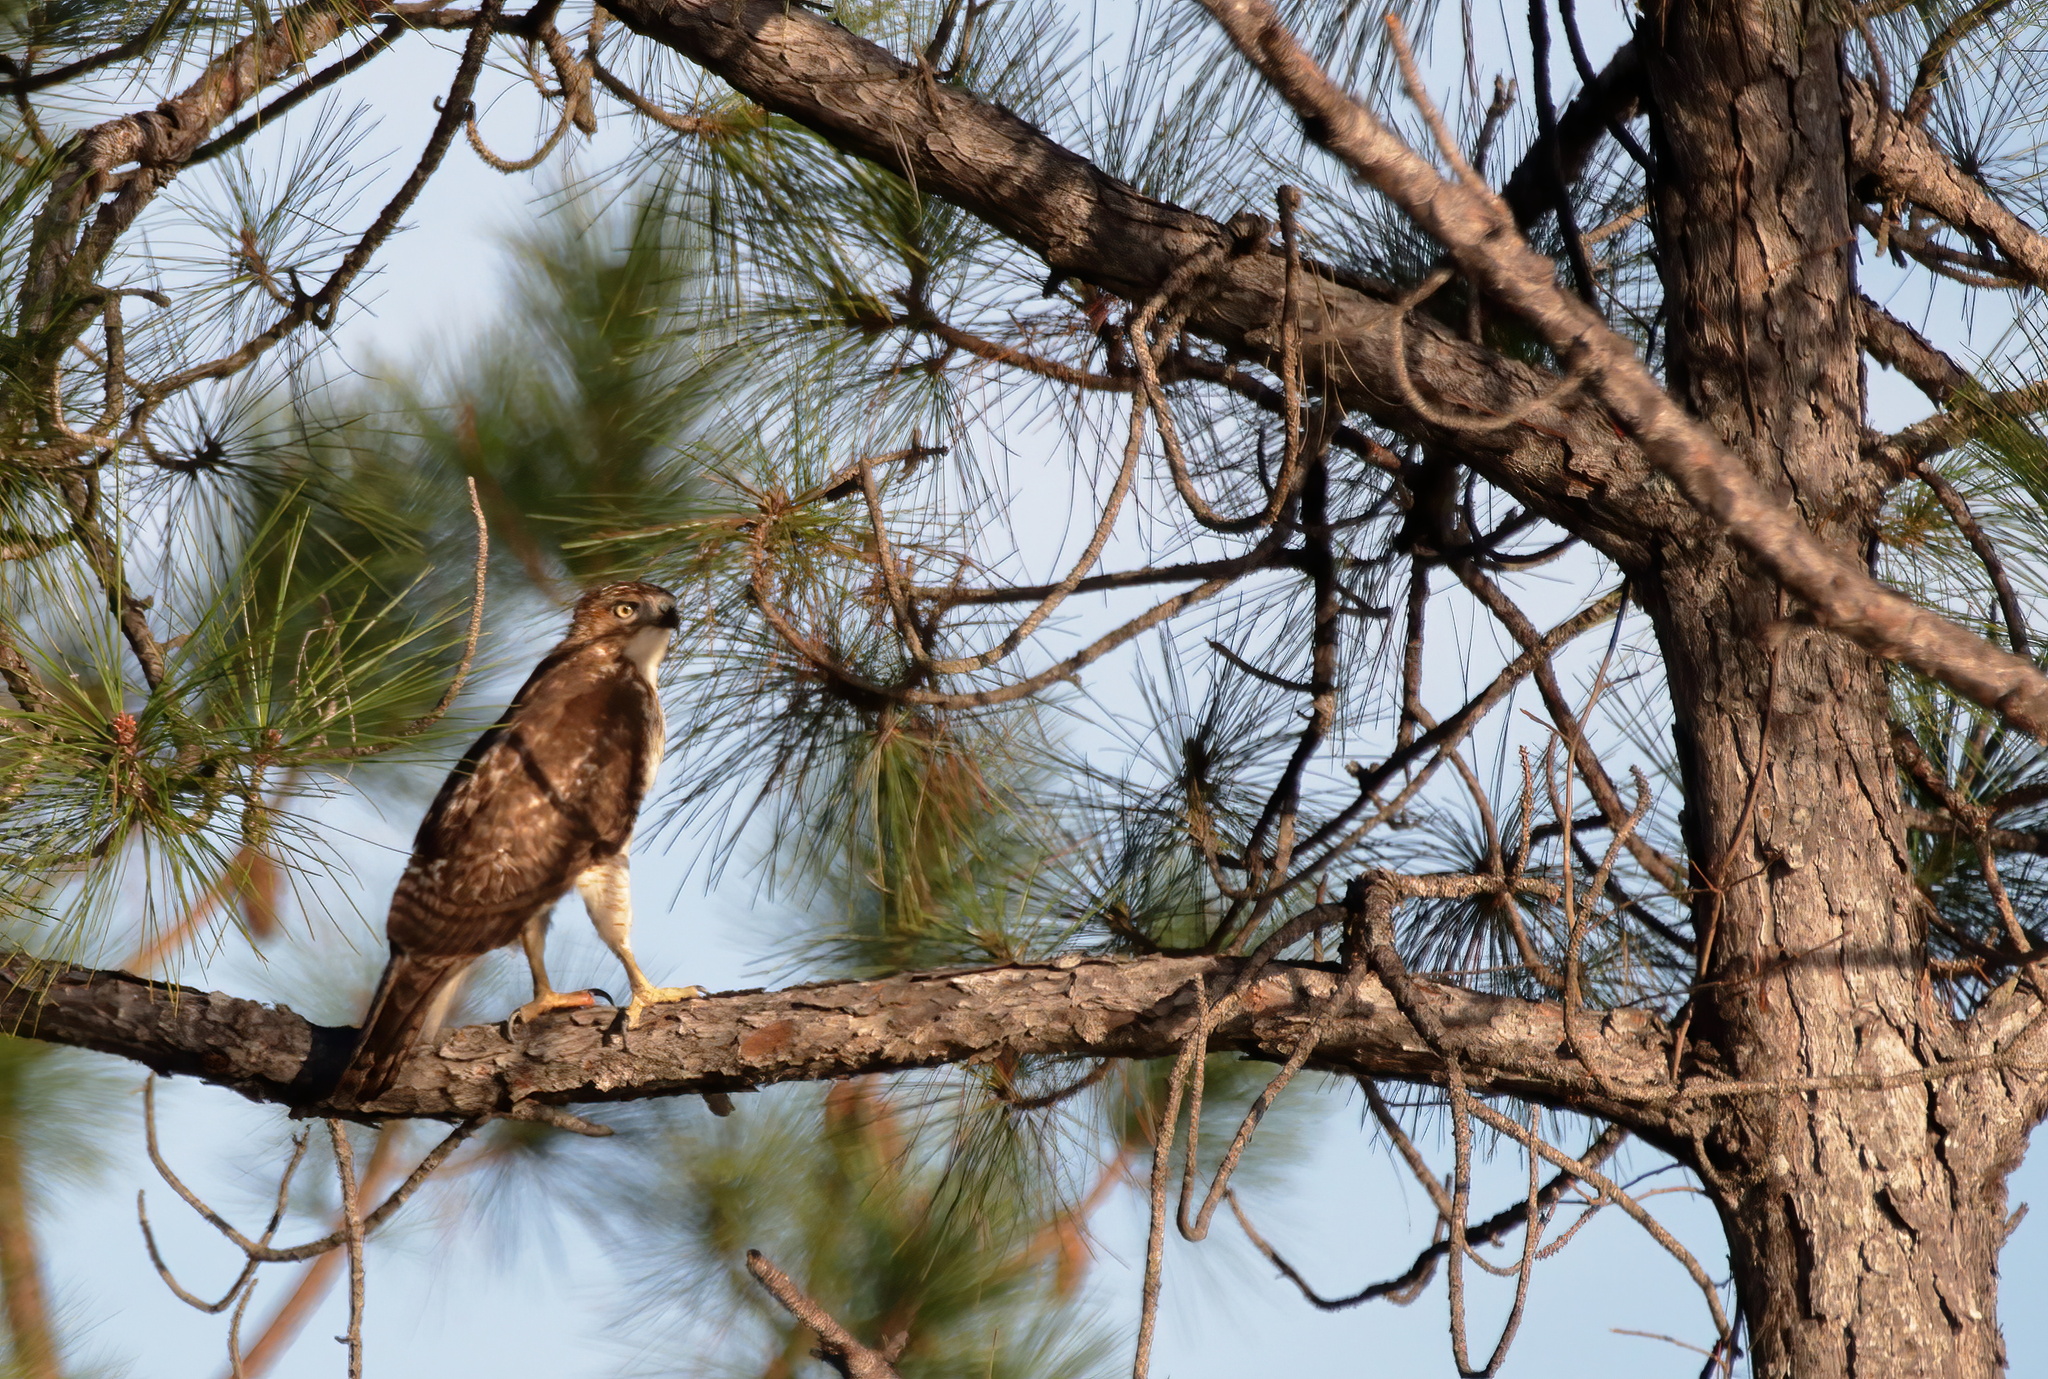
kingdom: Animalia
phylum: Chordata
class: Aves
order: Accipitriformes
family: Accipitridae
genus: Buteo
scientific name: Buteo jamaicensis
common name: Red-tailed hawk
